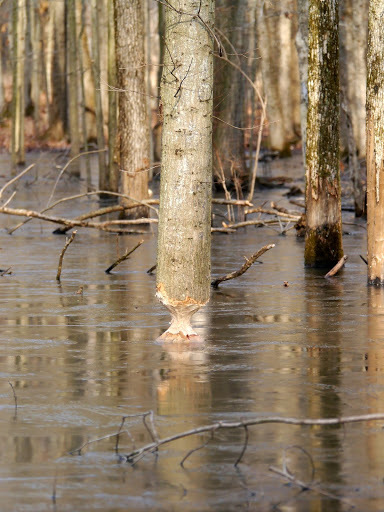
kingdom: Animalia
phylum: Chordata
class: Mammalia
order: Rodentia
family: Castoridae
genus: Castor
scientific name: Castor canadensis
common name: American beaver
